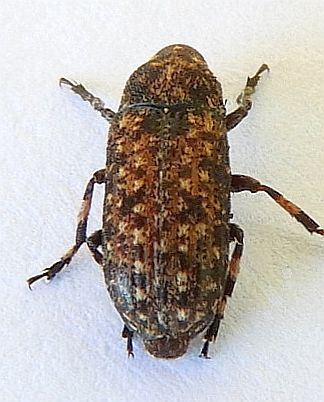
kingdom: Animalia
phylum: Arthropoda
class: Insecta
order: Coleoptera
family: Anthribidae
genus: Euparius
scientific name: Euparius subtessellatus
